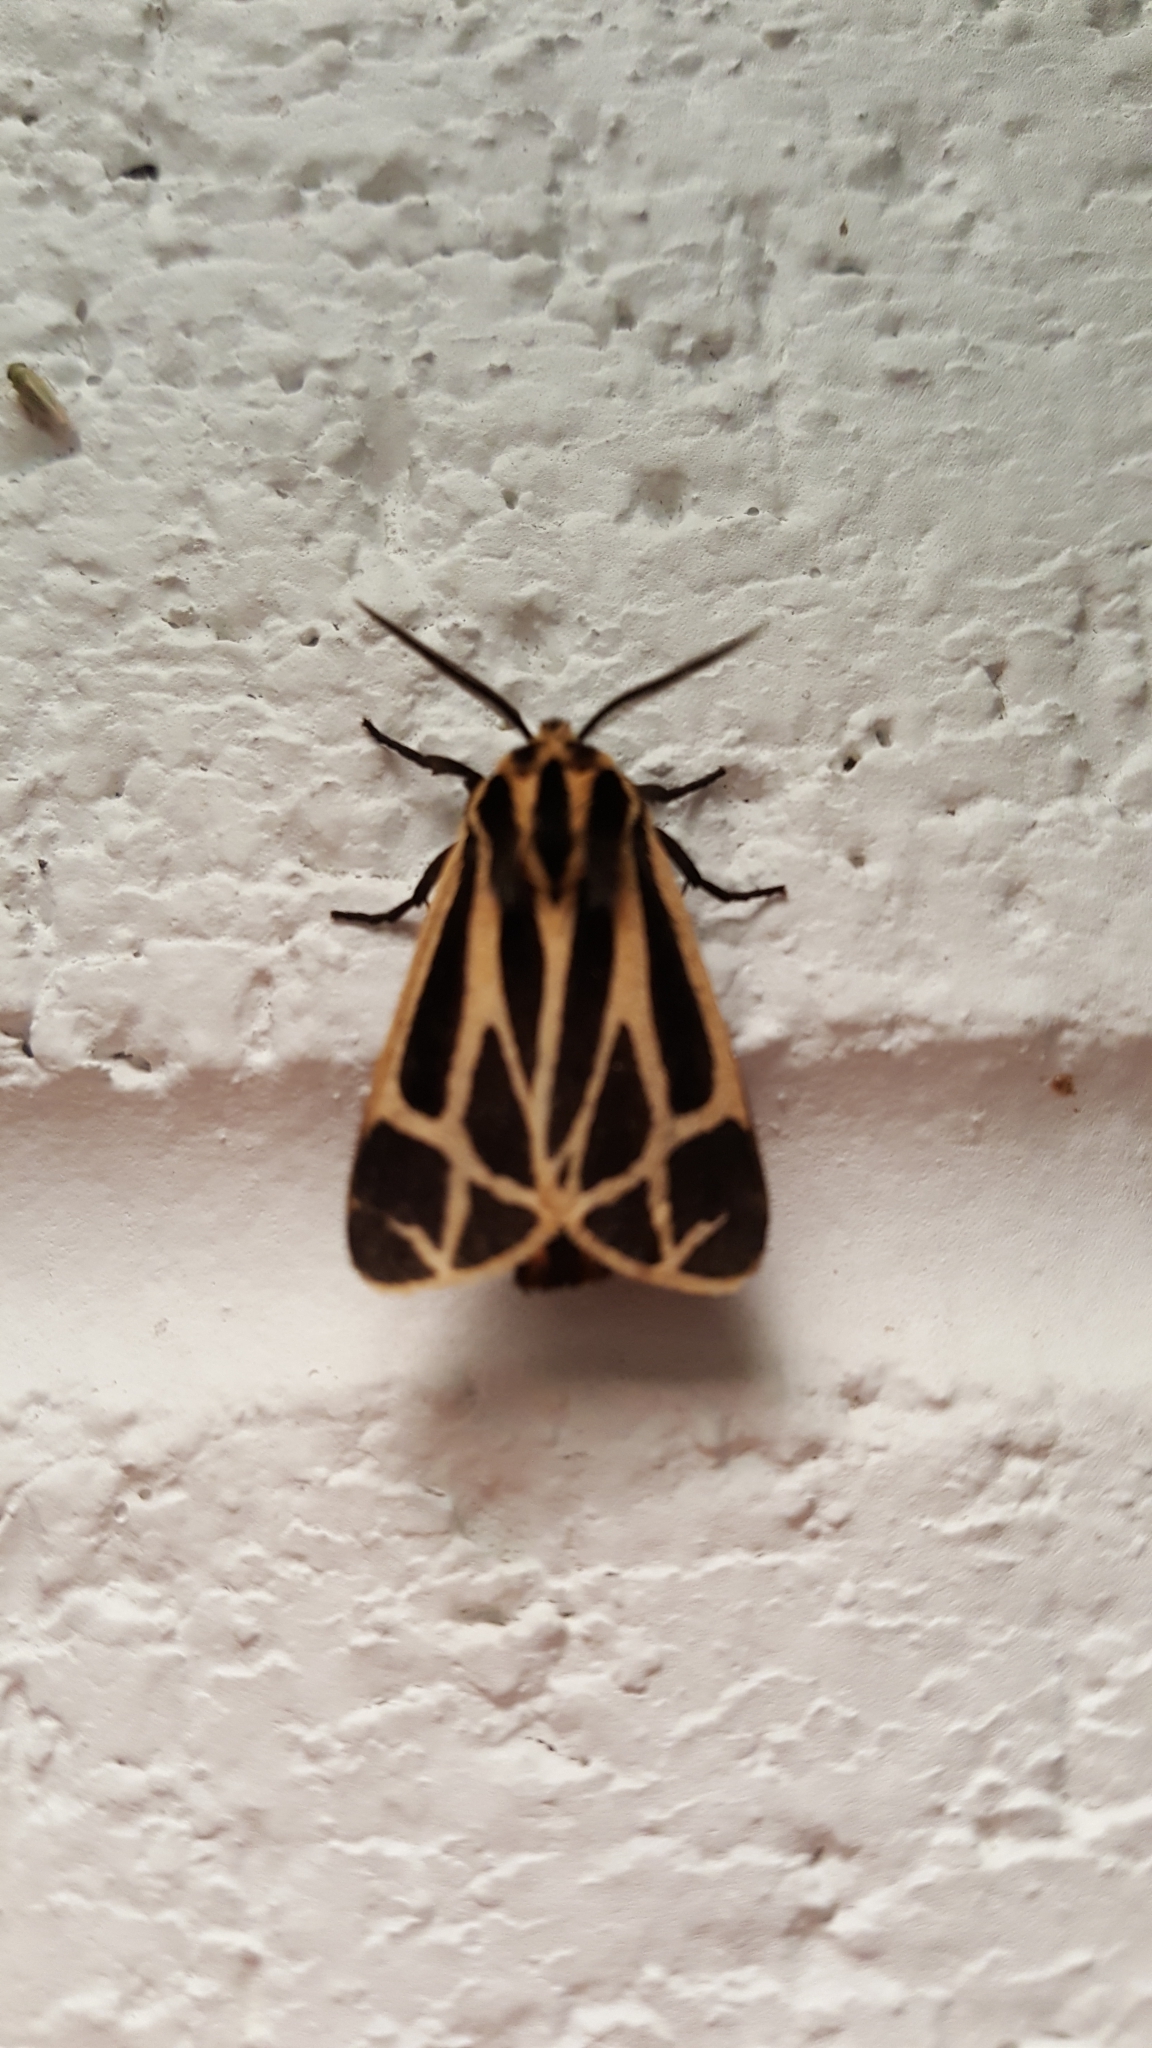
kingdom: Animalia
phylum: Arthropoda
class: Insecta
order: Lepidoptera
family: Erebidae
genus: Apantesis
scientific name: Apantesis
